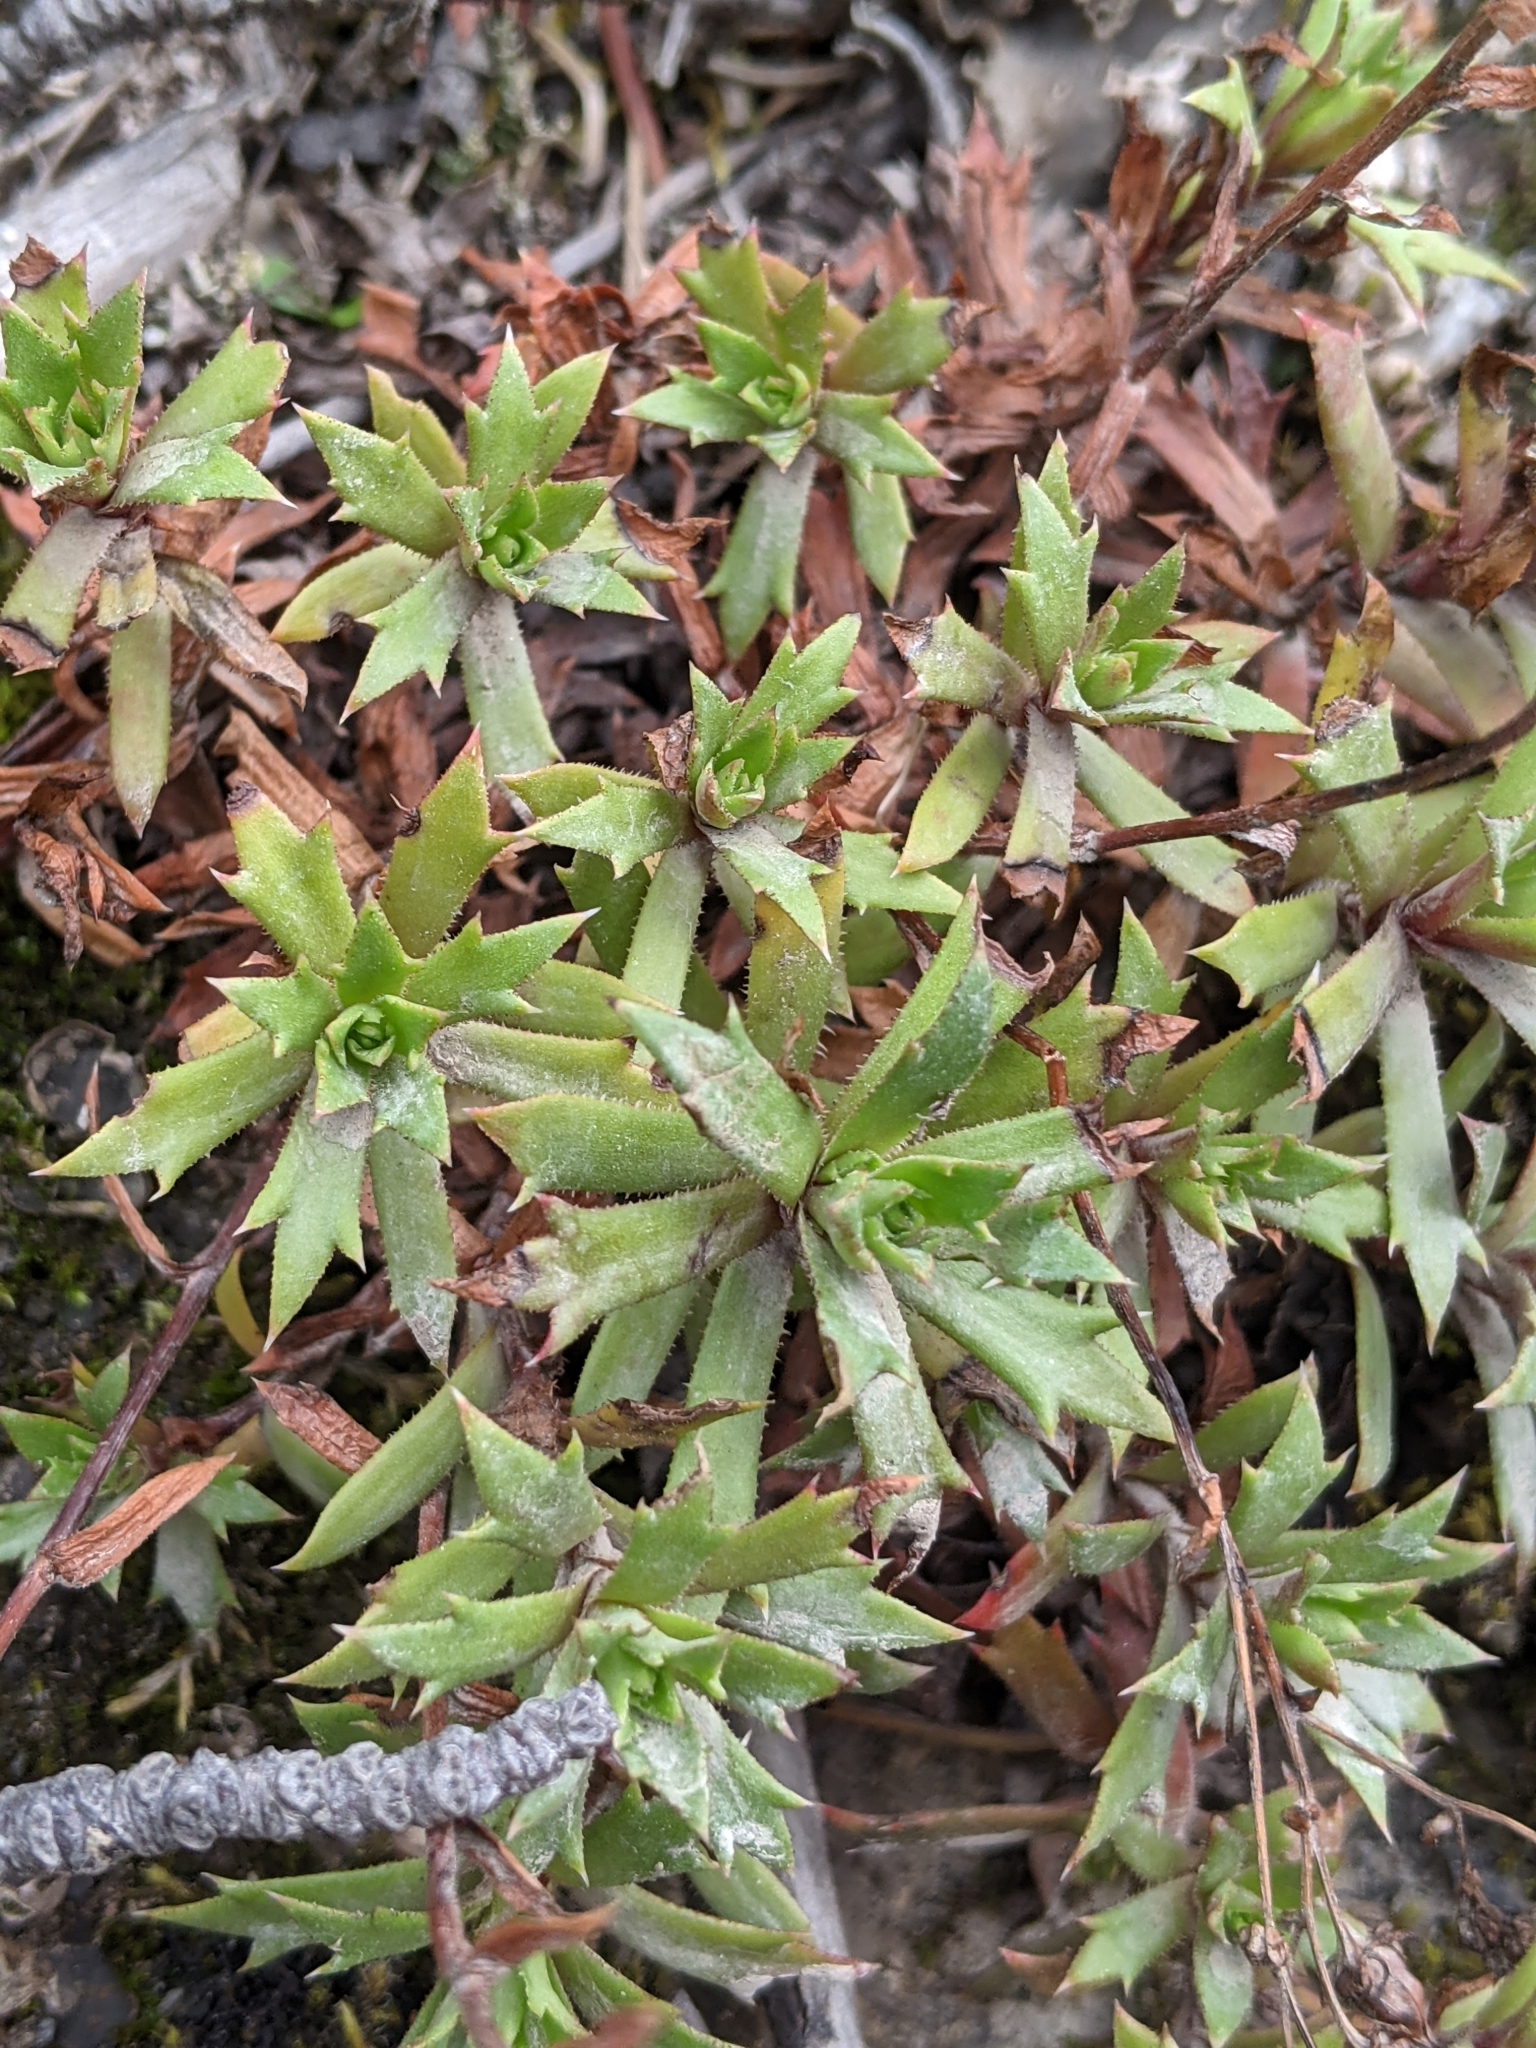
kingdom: Plantae
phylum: Tracheophyta
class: Magnoliopsida
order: Saxifragales
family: Saxifragaceae
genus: Saxifraga
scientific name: Saxifraga tricuspidata
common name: Prickly saxifrage
